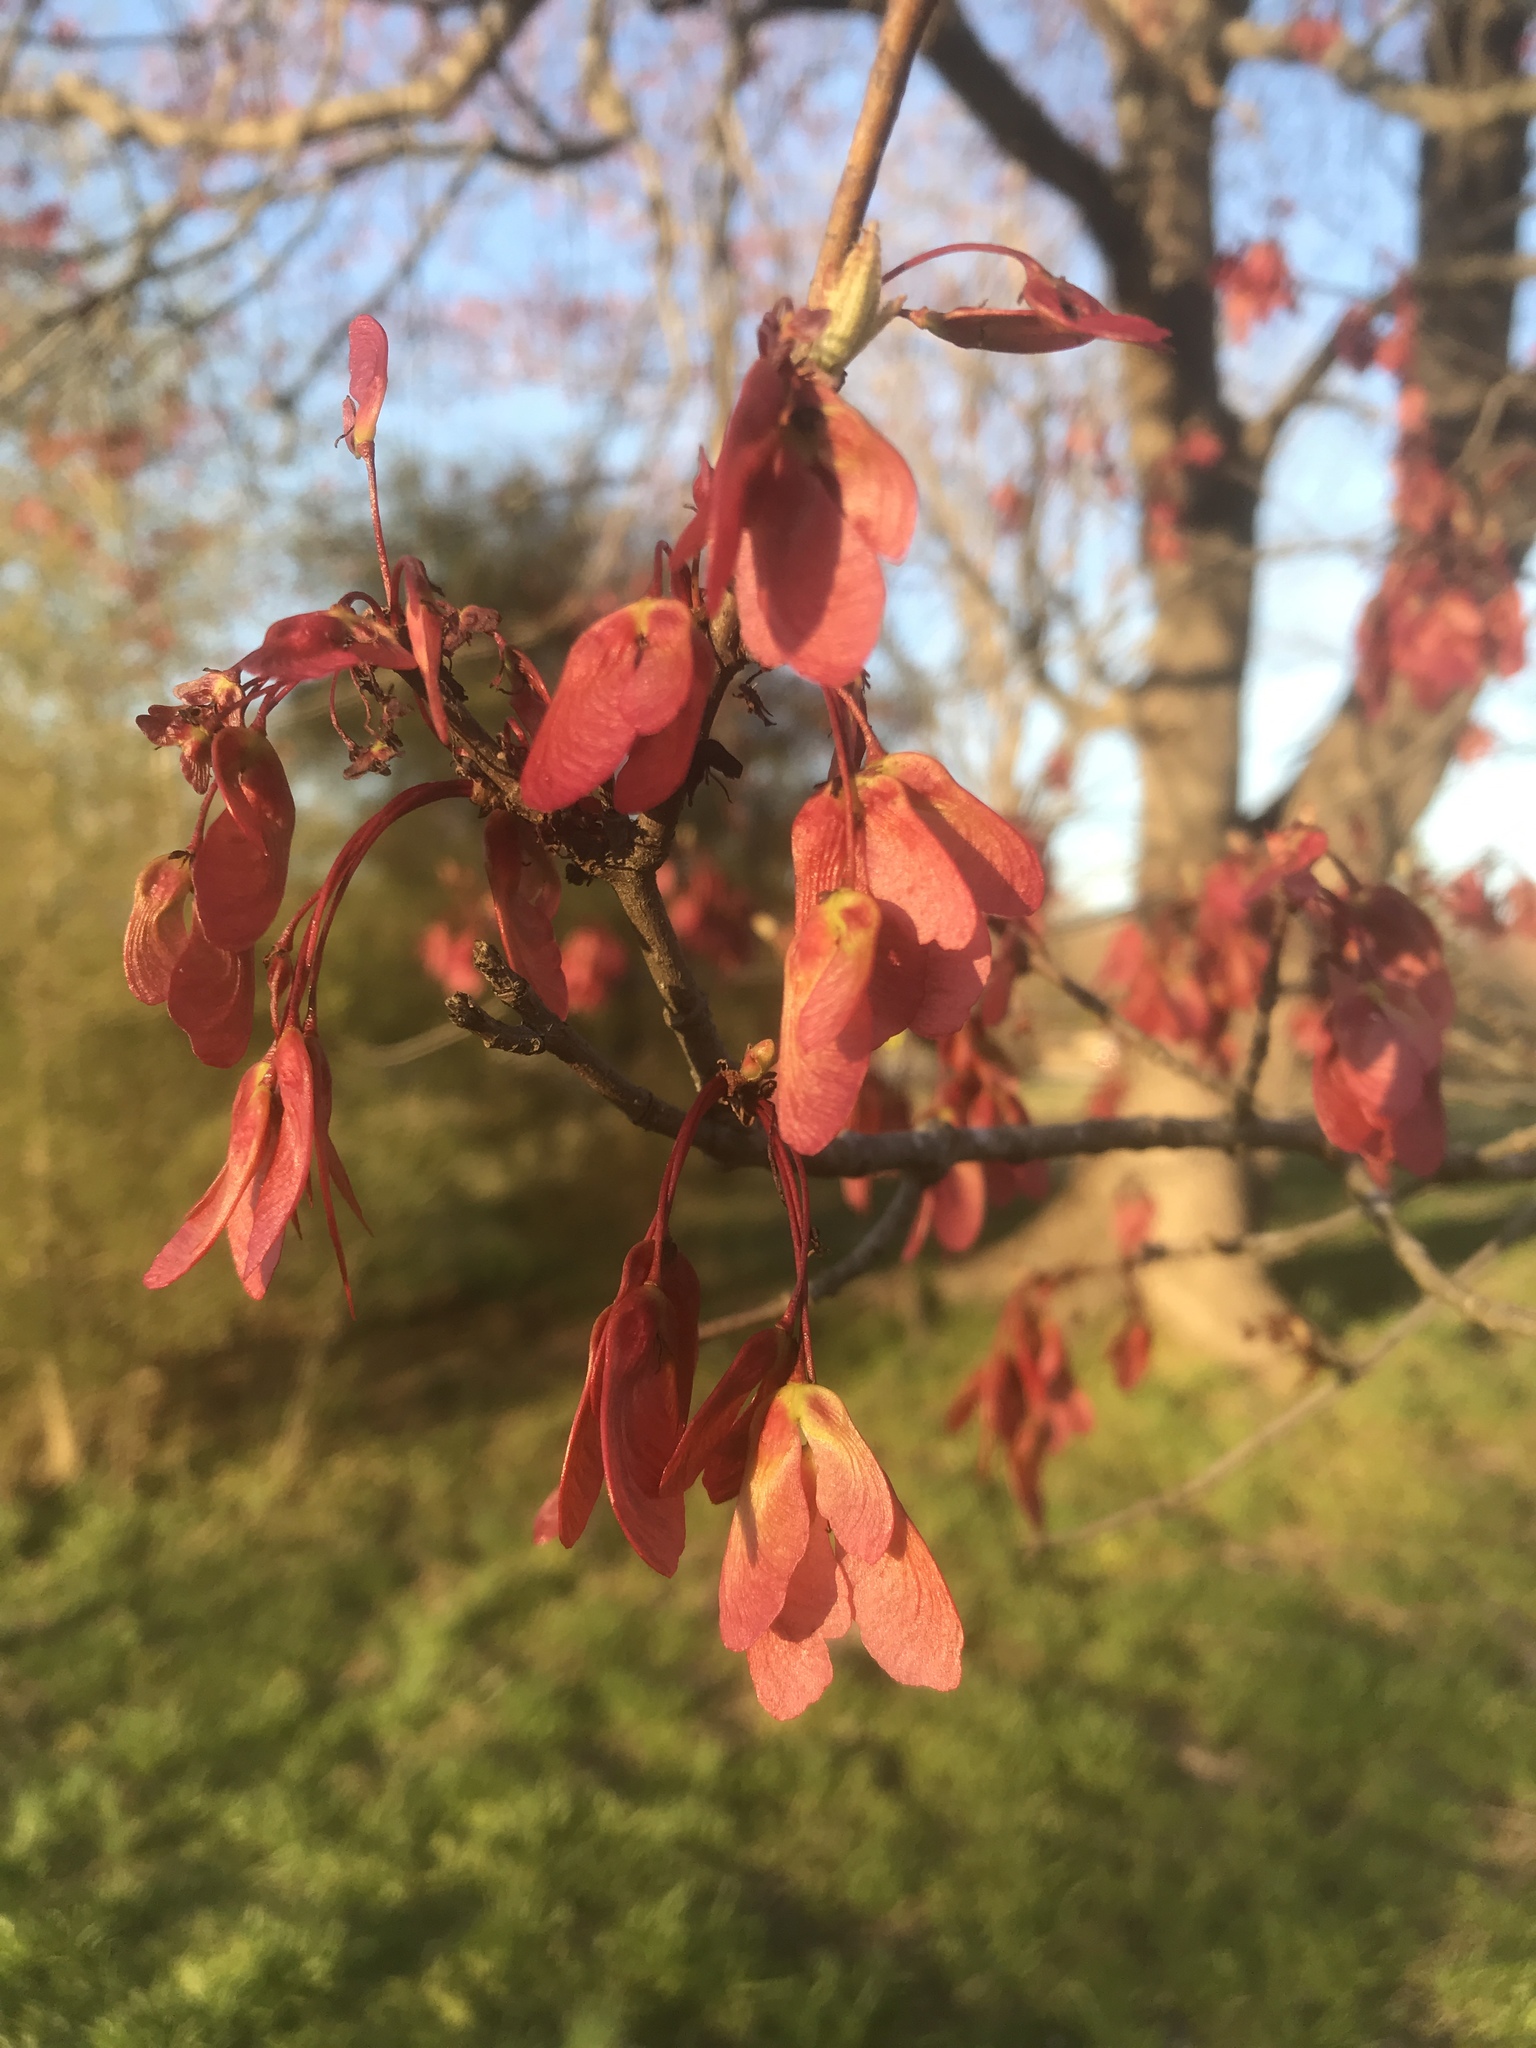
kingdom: Plantae
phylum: Tracheophyta
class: Magnoliopsida
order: Sapindales
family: Sapindaceae
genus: Acer
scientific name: Acer rubrum
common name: Red maple
